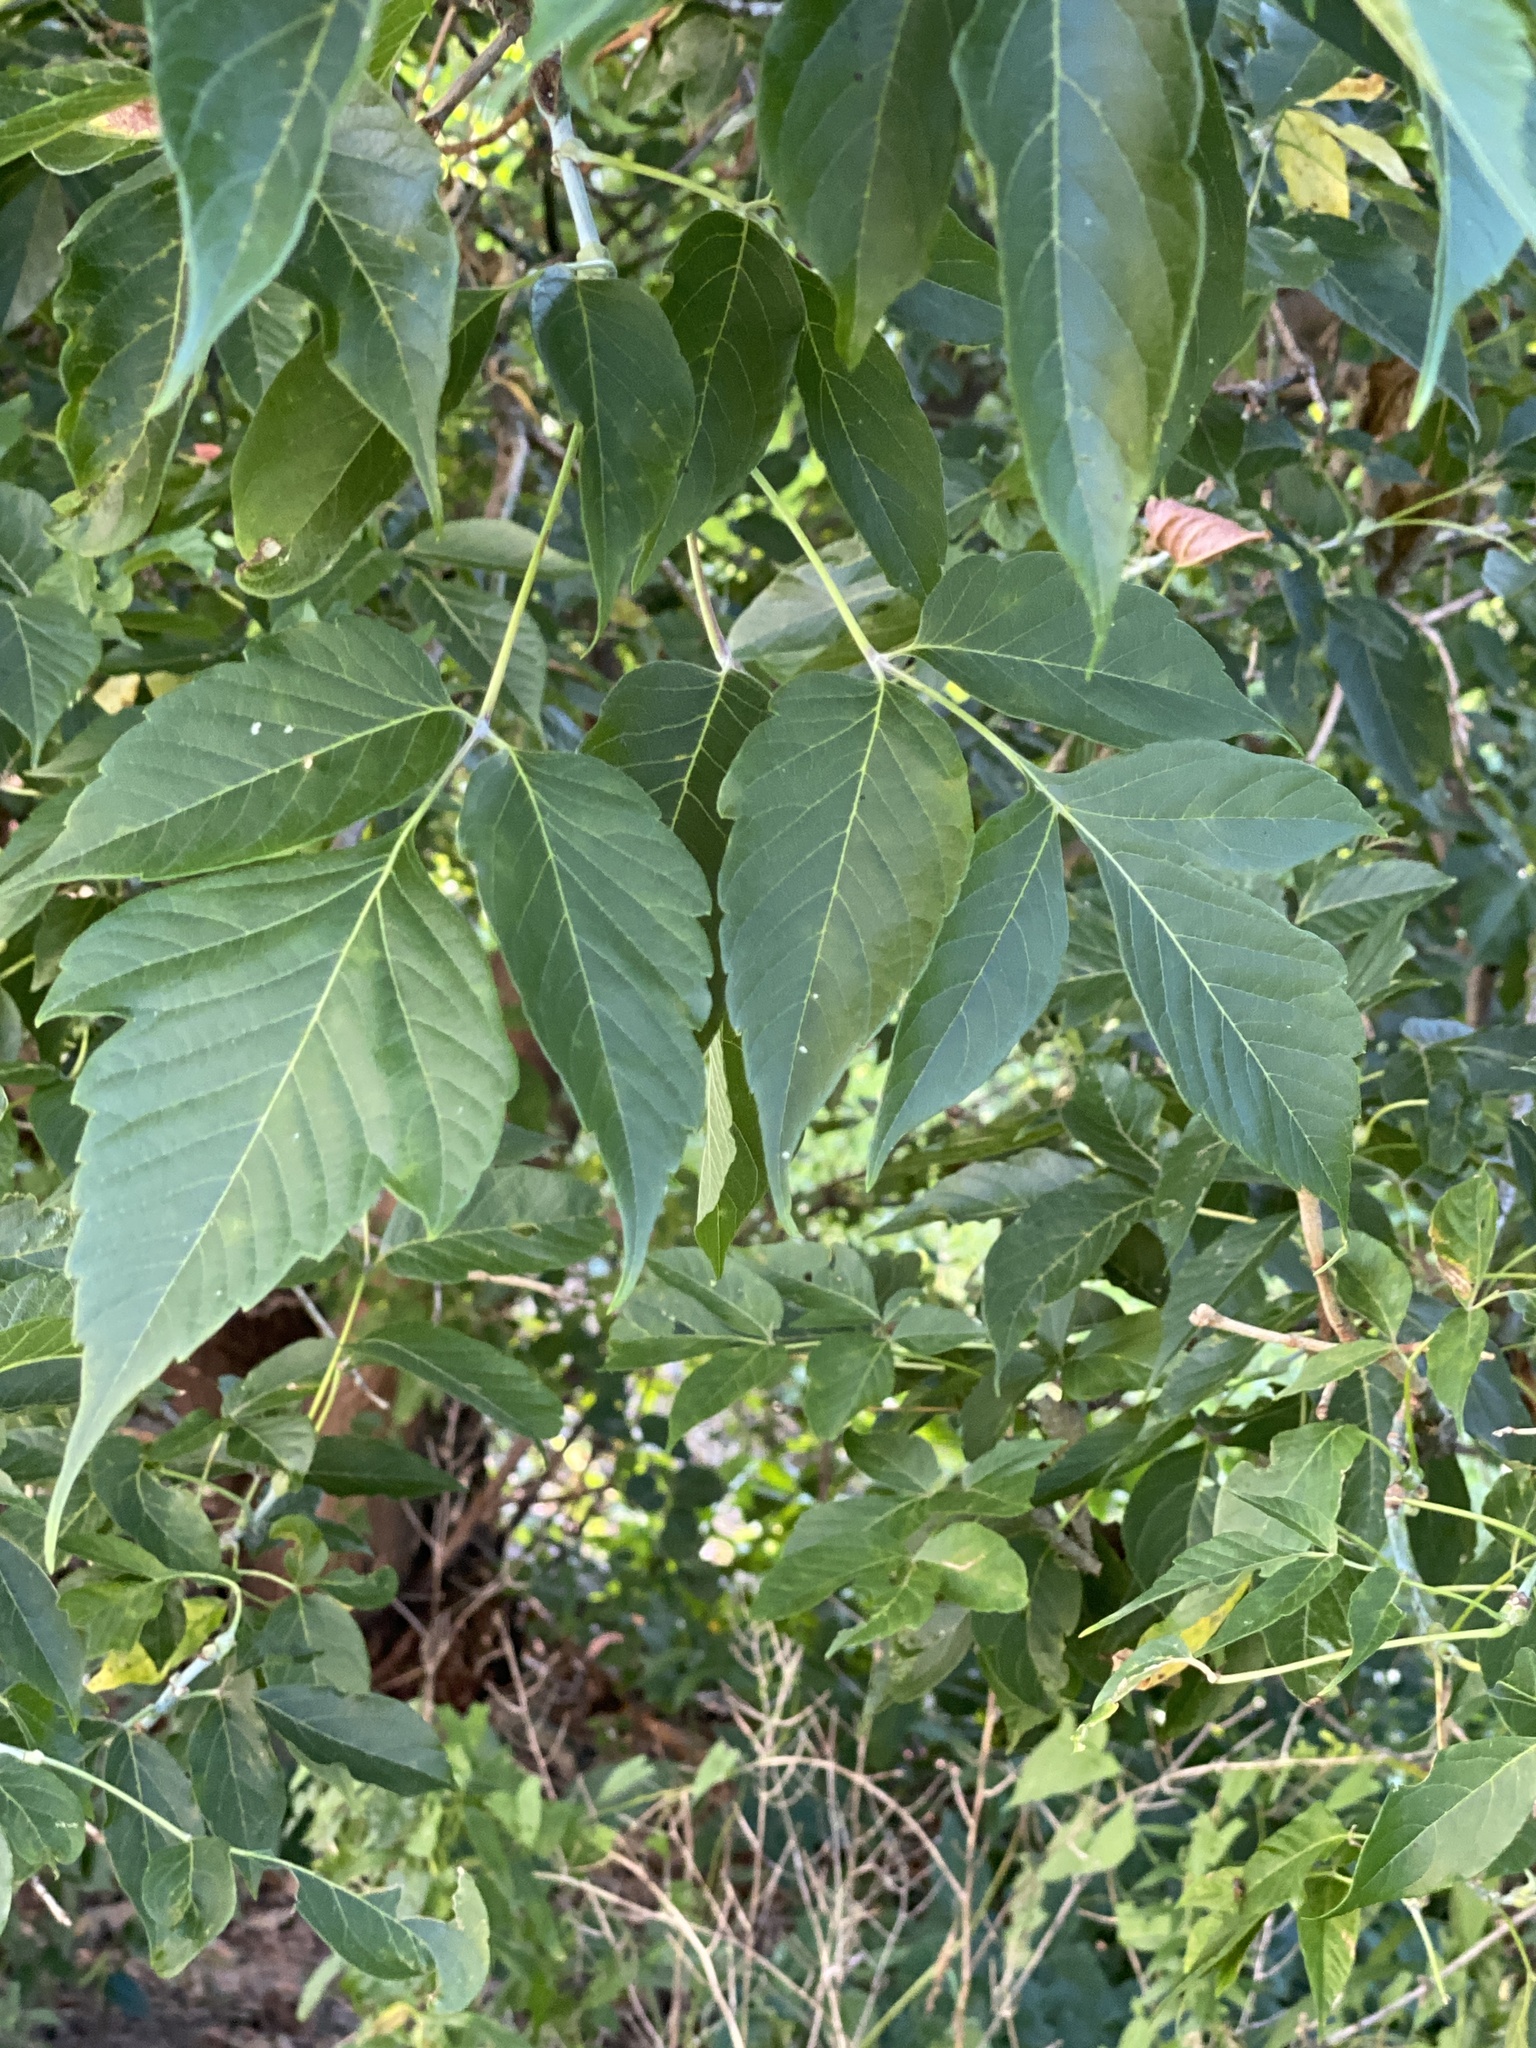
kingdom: Plantae
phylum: Tracheophyta
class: Magnoliopsida
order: Sapindales
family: Sapindaceae
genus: Acer
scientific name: Acer negundo
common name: Ashleaf maple
